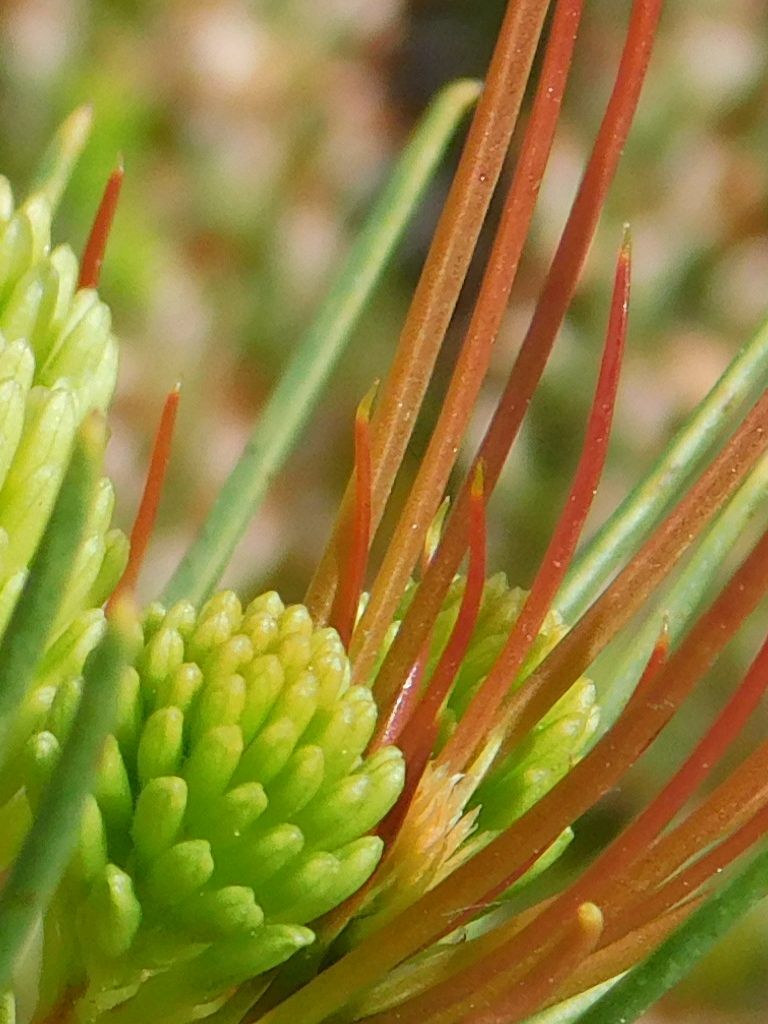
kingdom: Plantae
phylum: Tracheophyta
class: Magnoliopsida
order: Proteales
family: Proteaceae
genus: Aulax
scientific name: Aulax cancellata
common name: Channel-leaf featherbush
